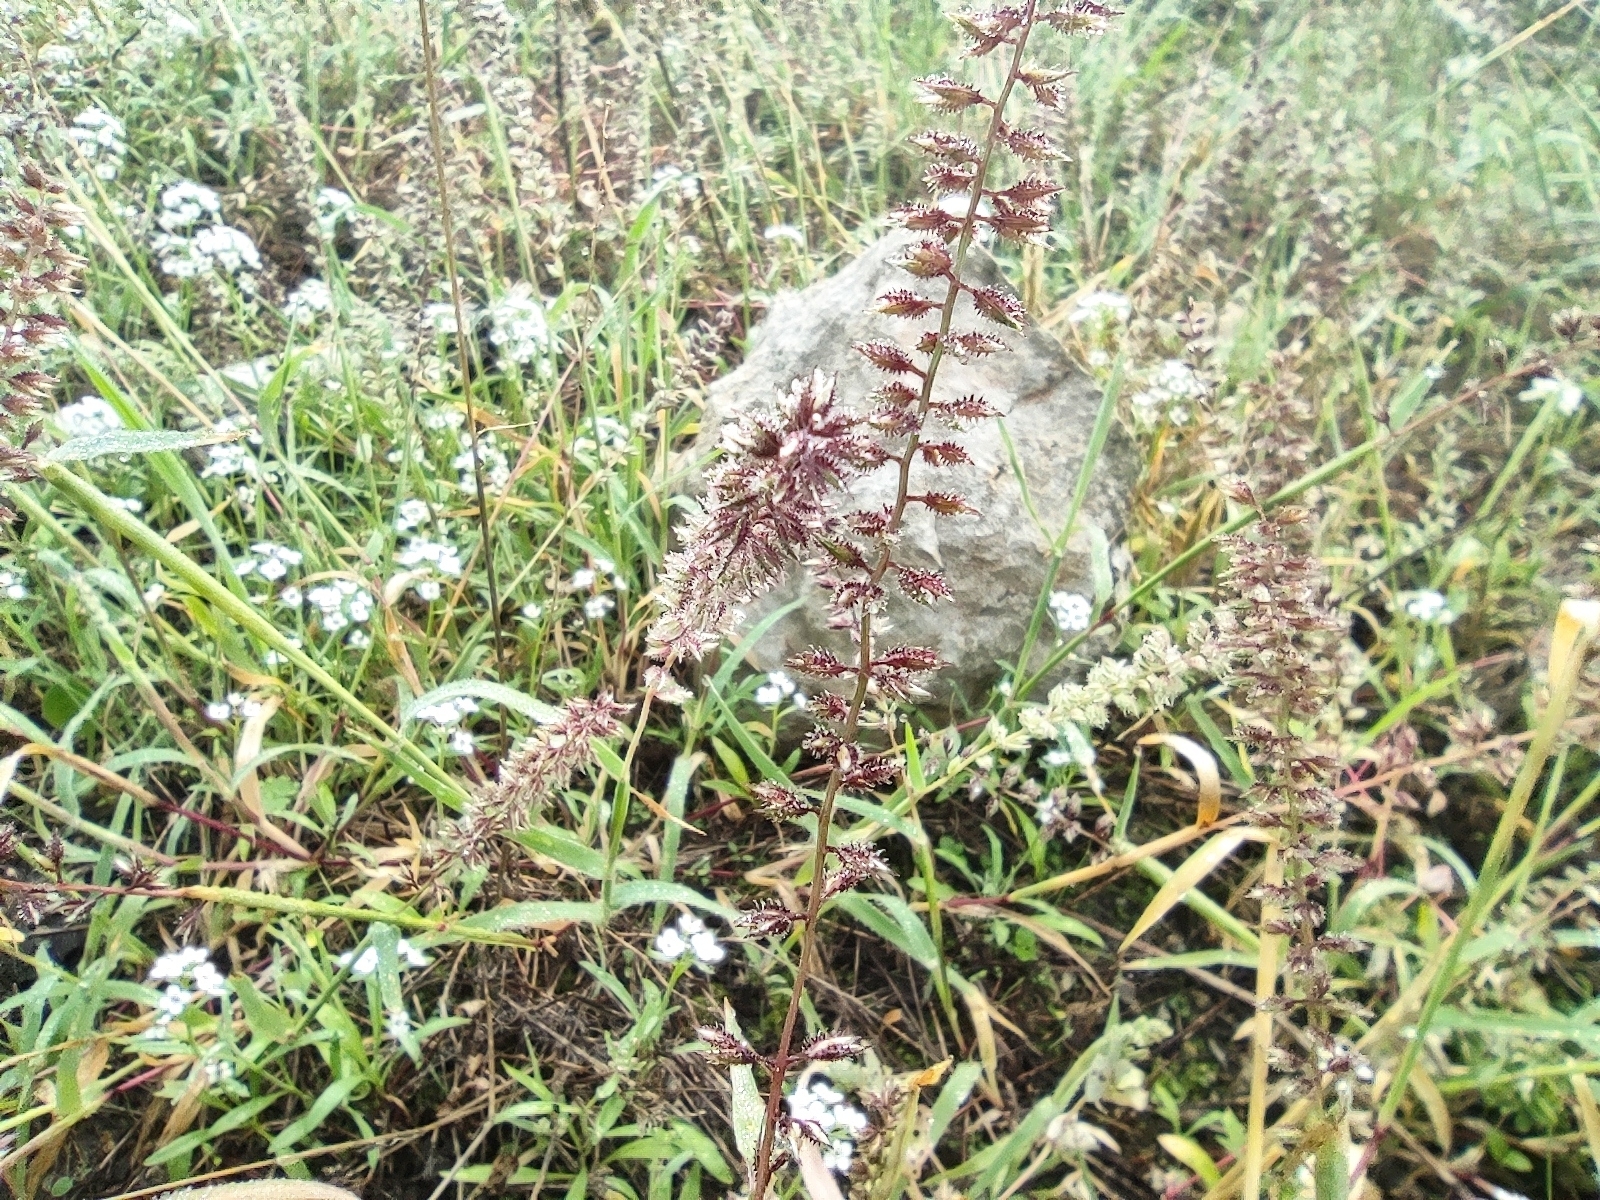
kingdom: Plantae
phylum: Tracheophyta
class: Liliopsida
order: Poales
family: Poaceae
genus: Tragus
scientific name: Tragus racemosus
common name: European bur-grass
